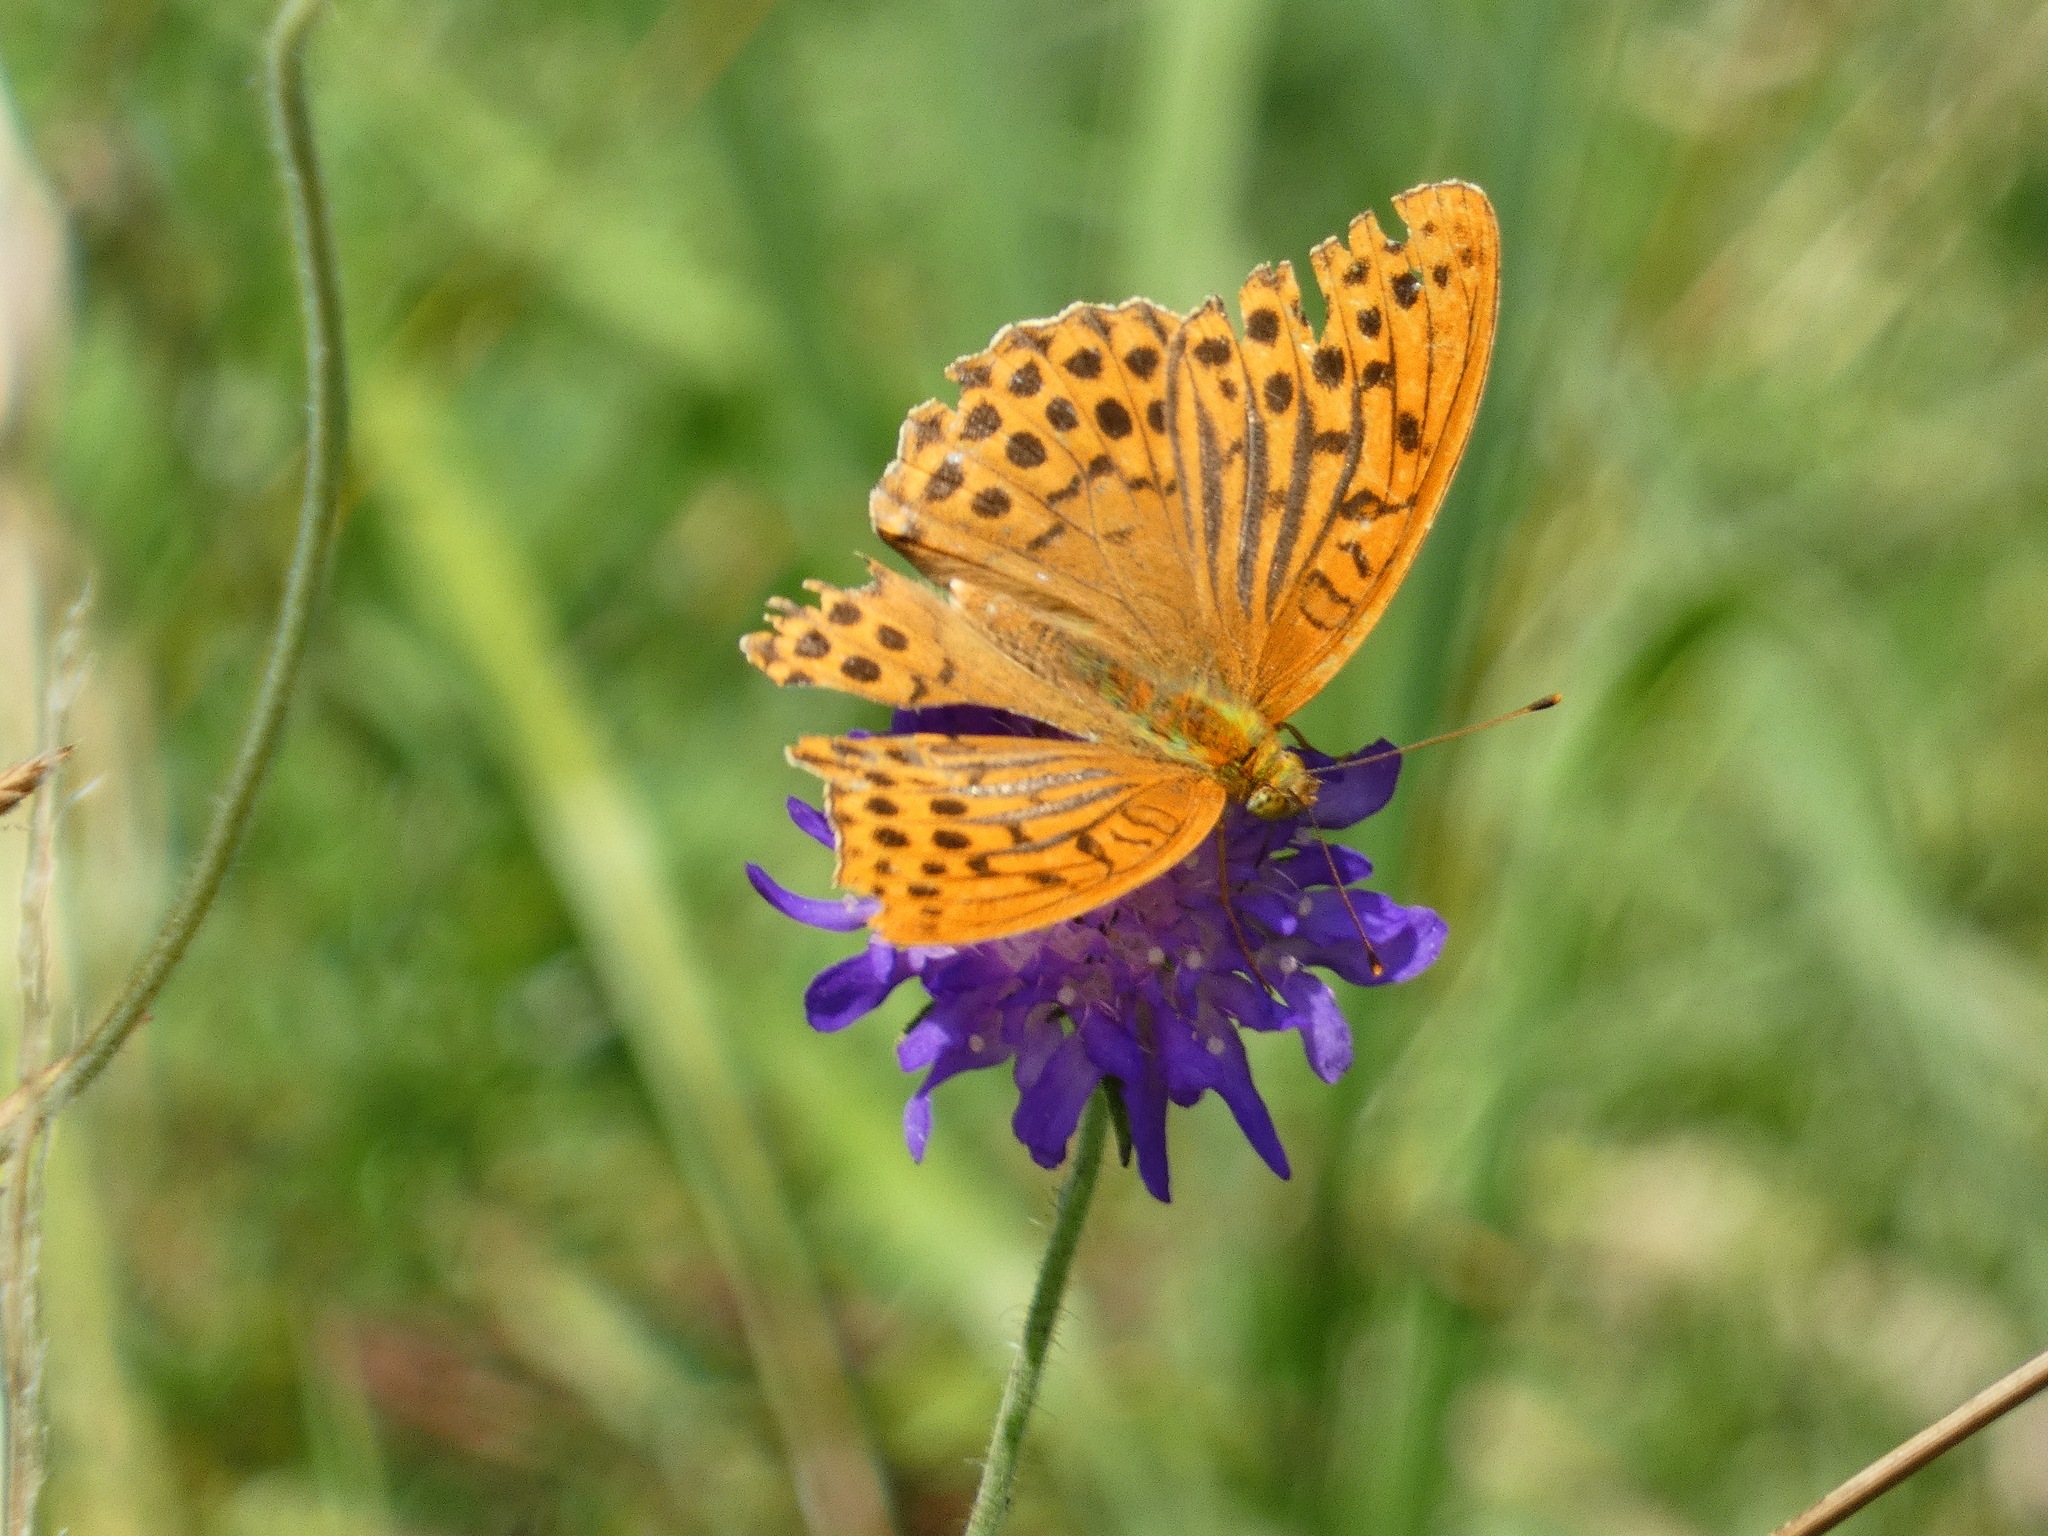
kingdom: Animalia
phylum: Arthropoda
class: Insecta
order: Lepidoptera
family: Nymphalidae
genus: Argynnis
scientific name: Argynnis paphia
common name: Silver-washed fritillary
